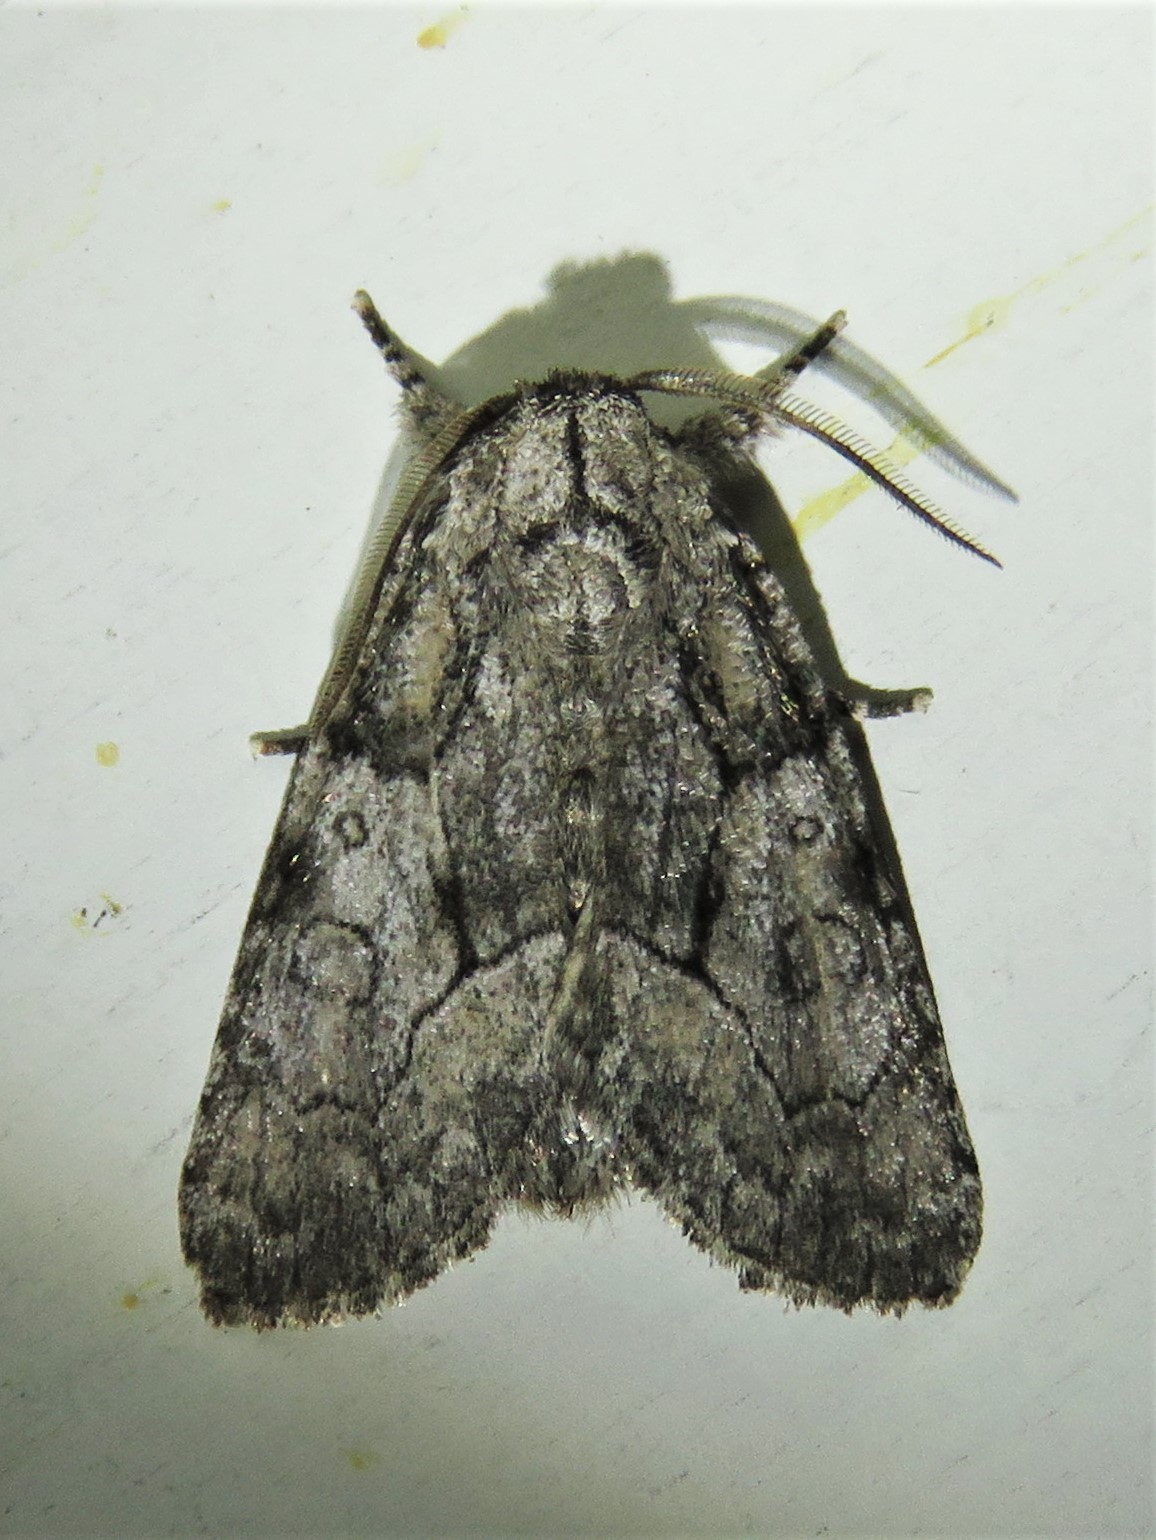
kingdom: Animalia
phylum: Arthropoda
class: Insecta
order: Lepidoptera
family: Noctuidae
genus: Raphia
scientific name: Raphia frater
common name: Brother
